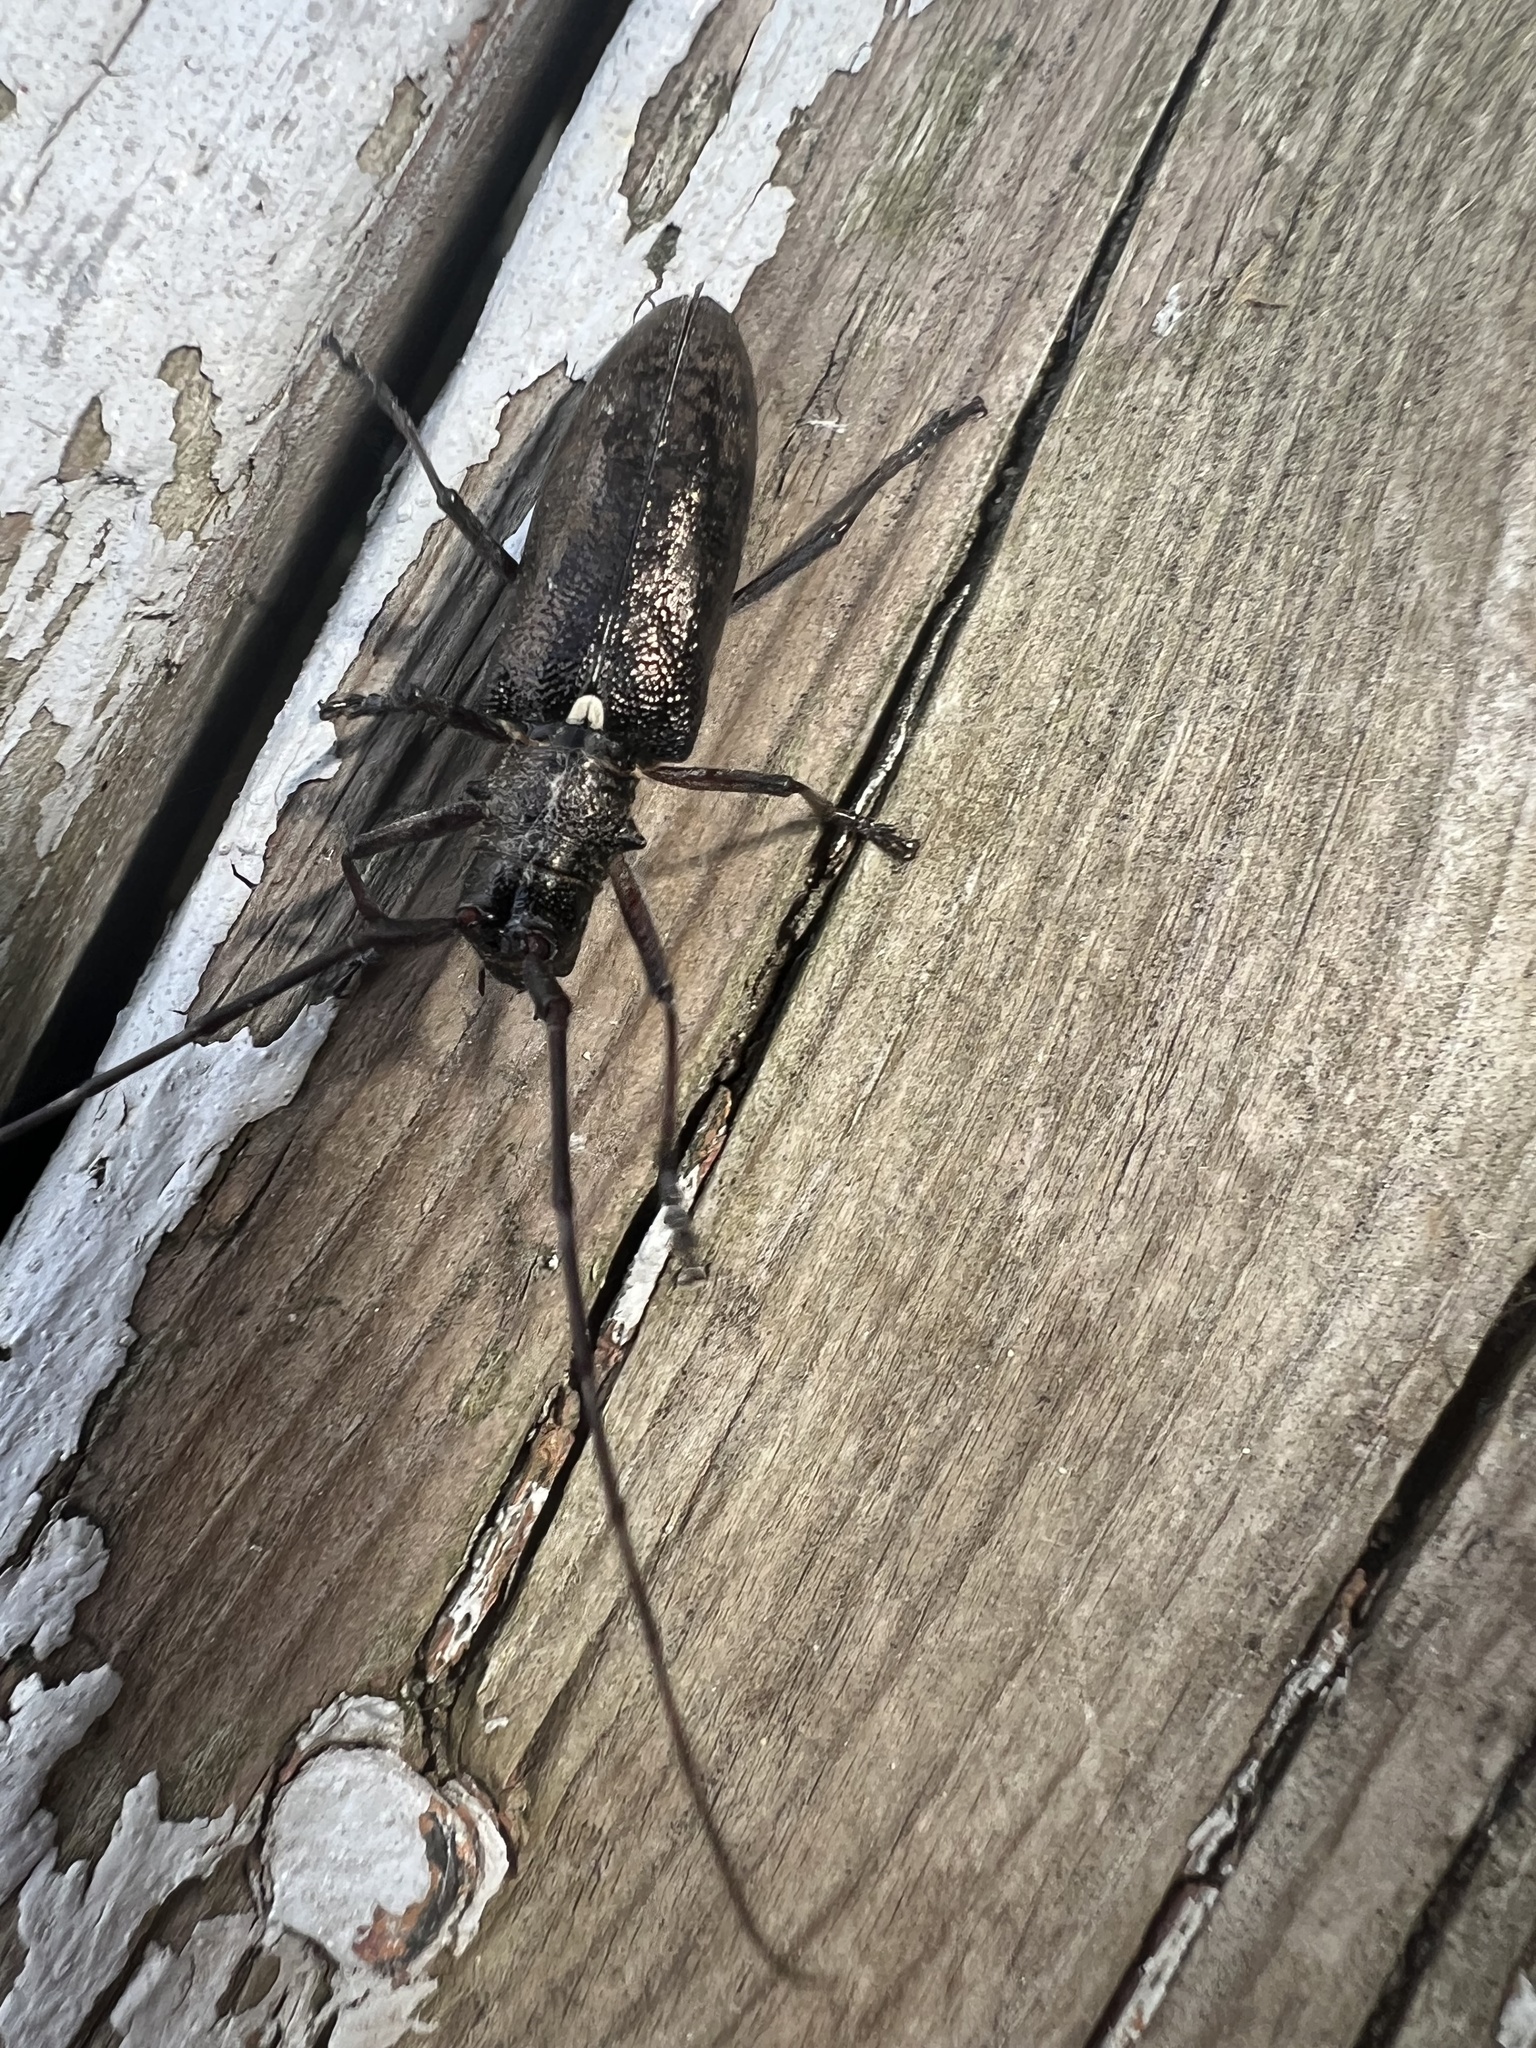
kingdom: Animalia
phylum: Arthropoda
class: Insecta
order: Coleoptera
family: Cerambycidae
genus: Monochamus
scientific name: Monochamus scutellatus
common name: White-spotted sawyer beetle
